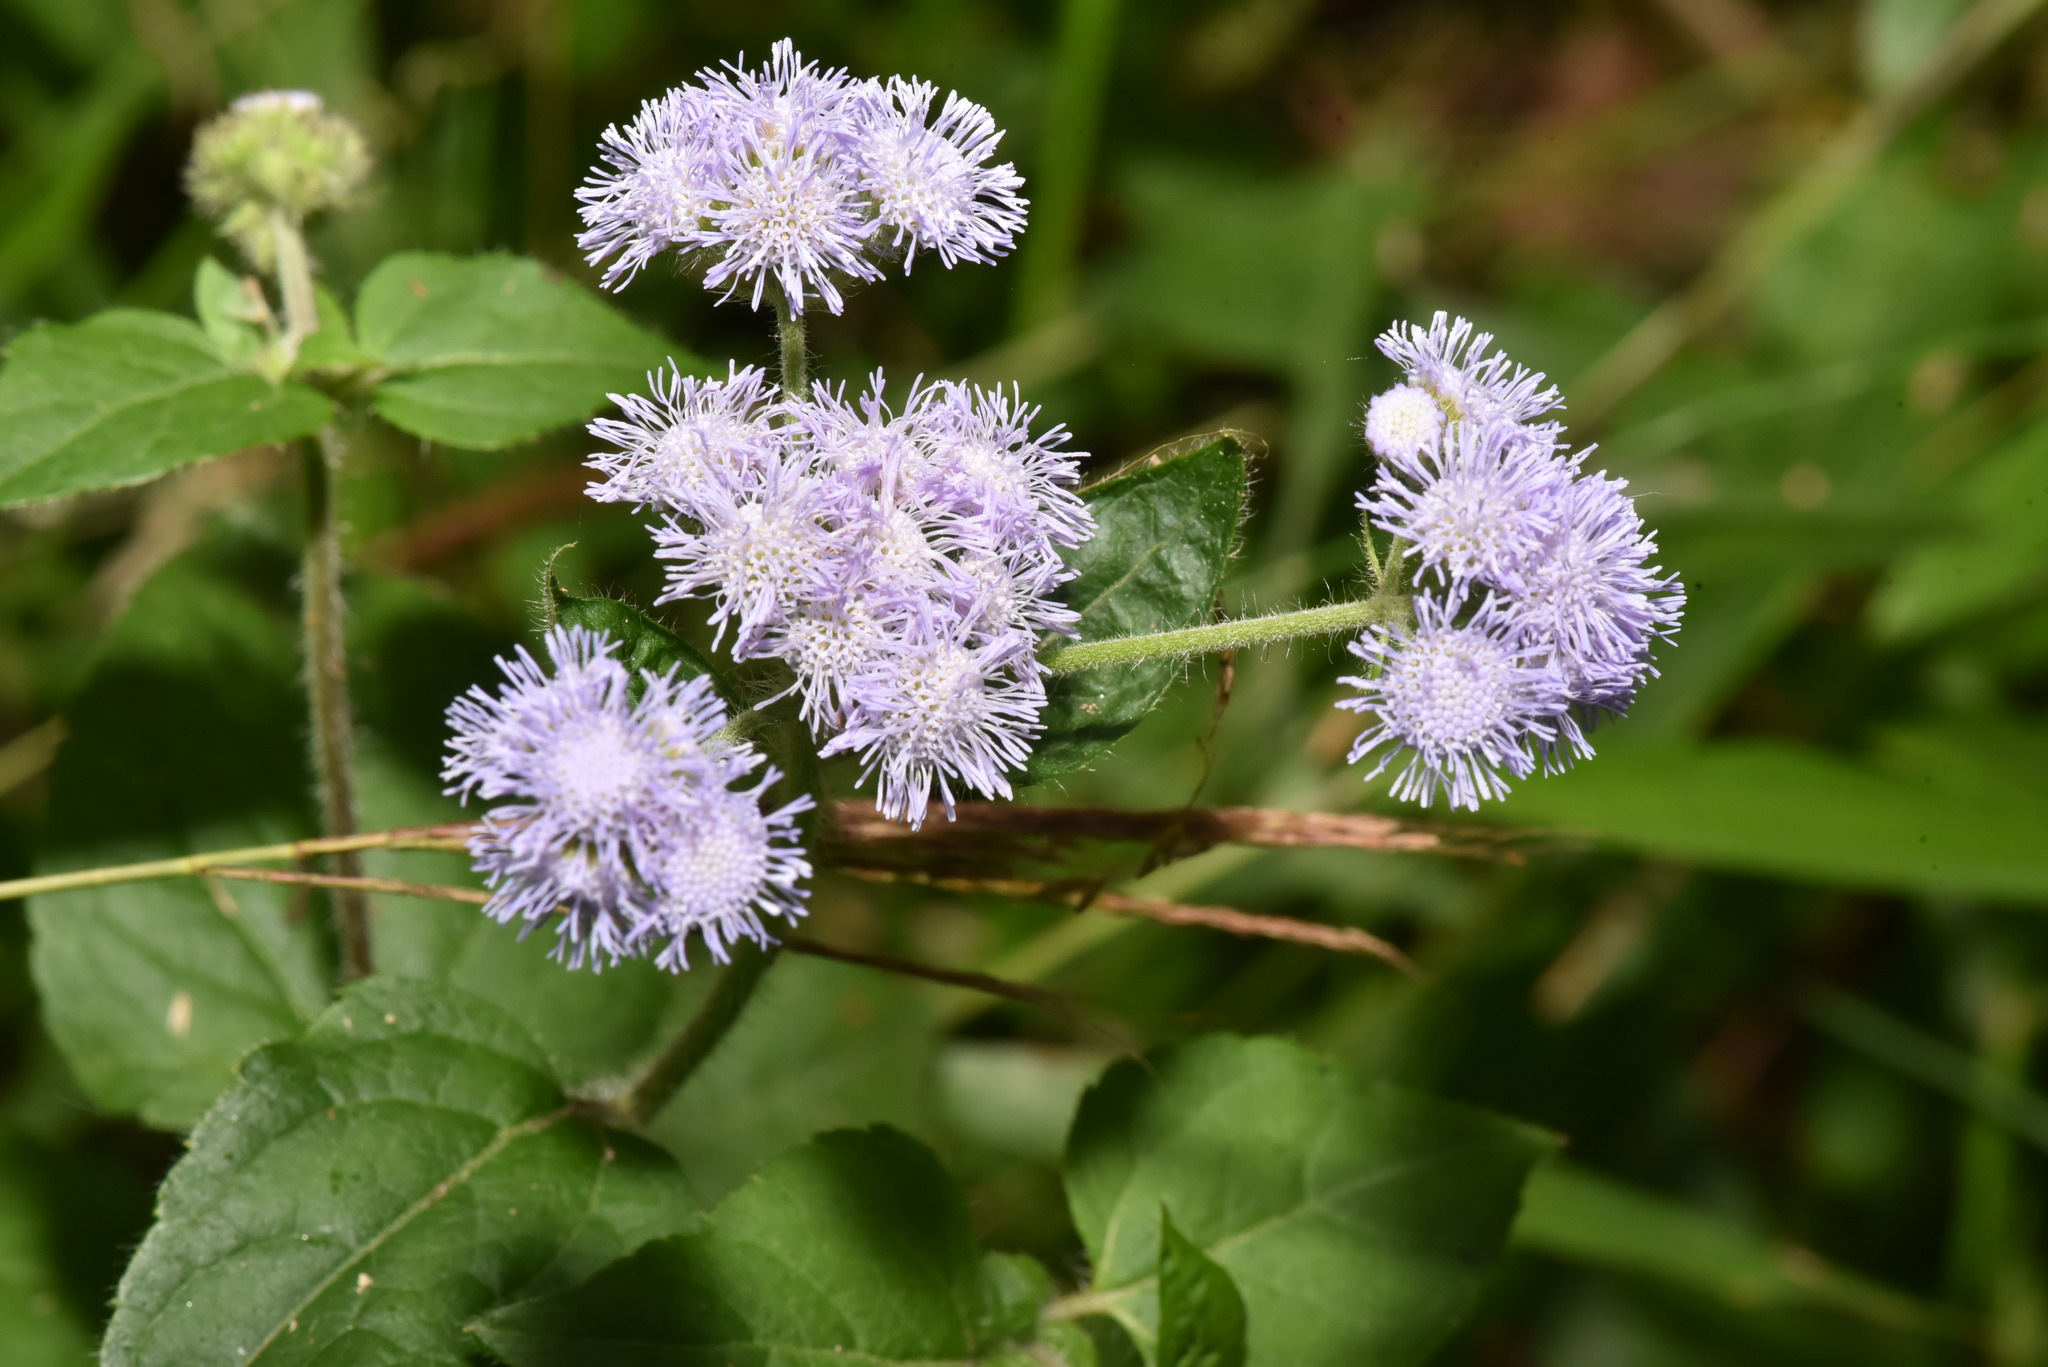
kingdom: Plantae
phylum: Tracheophyta
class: Magnoliopsida
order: Asterales
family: Asteraceae
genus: Ageratum
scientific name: Ageratum houstonianum
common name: Bluemink
